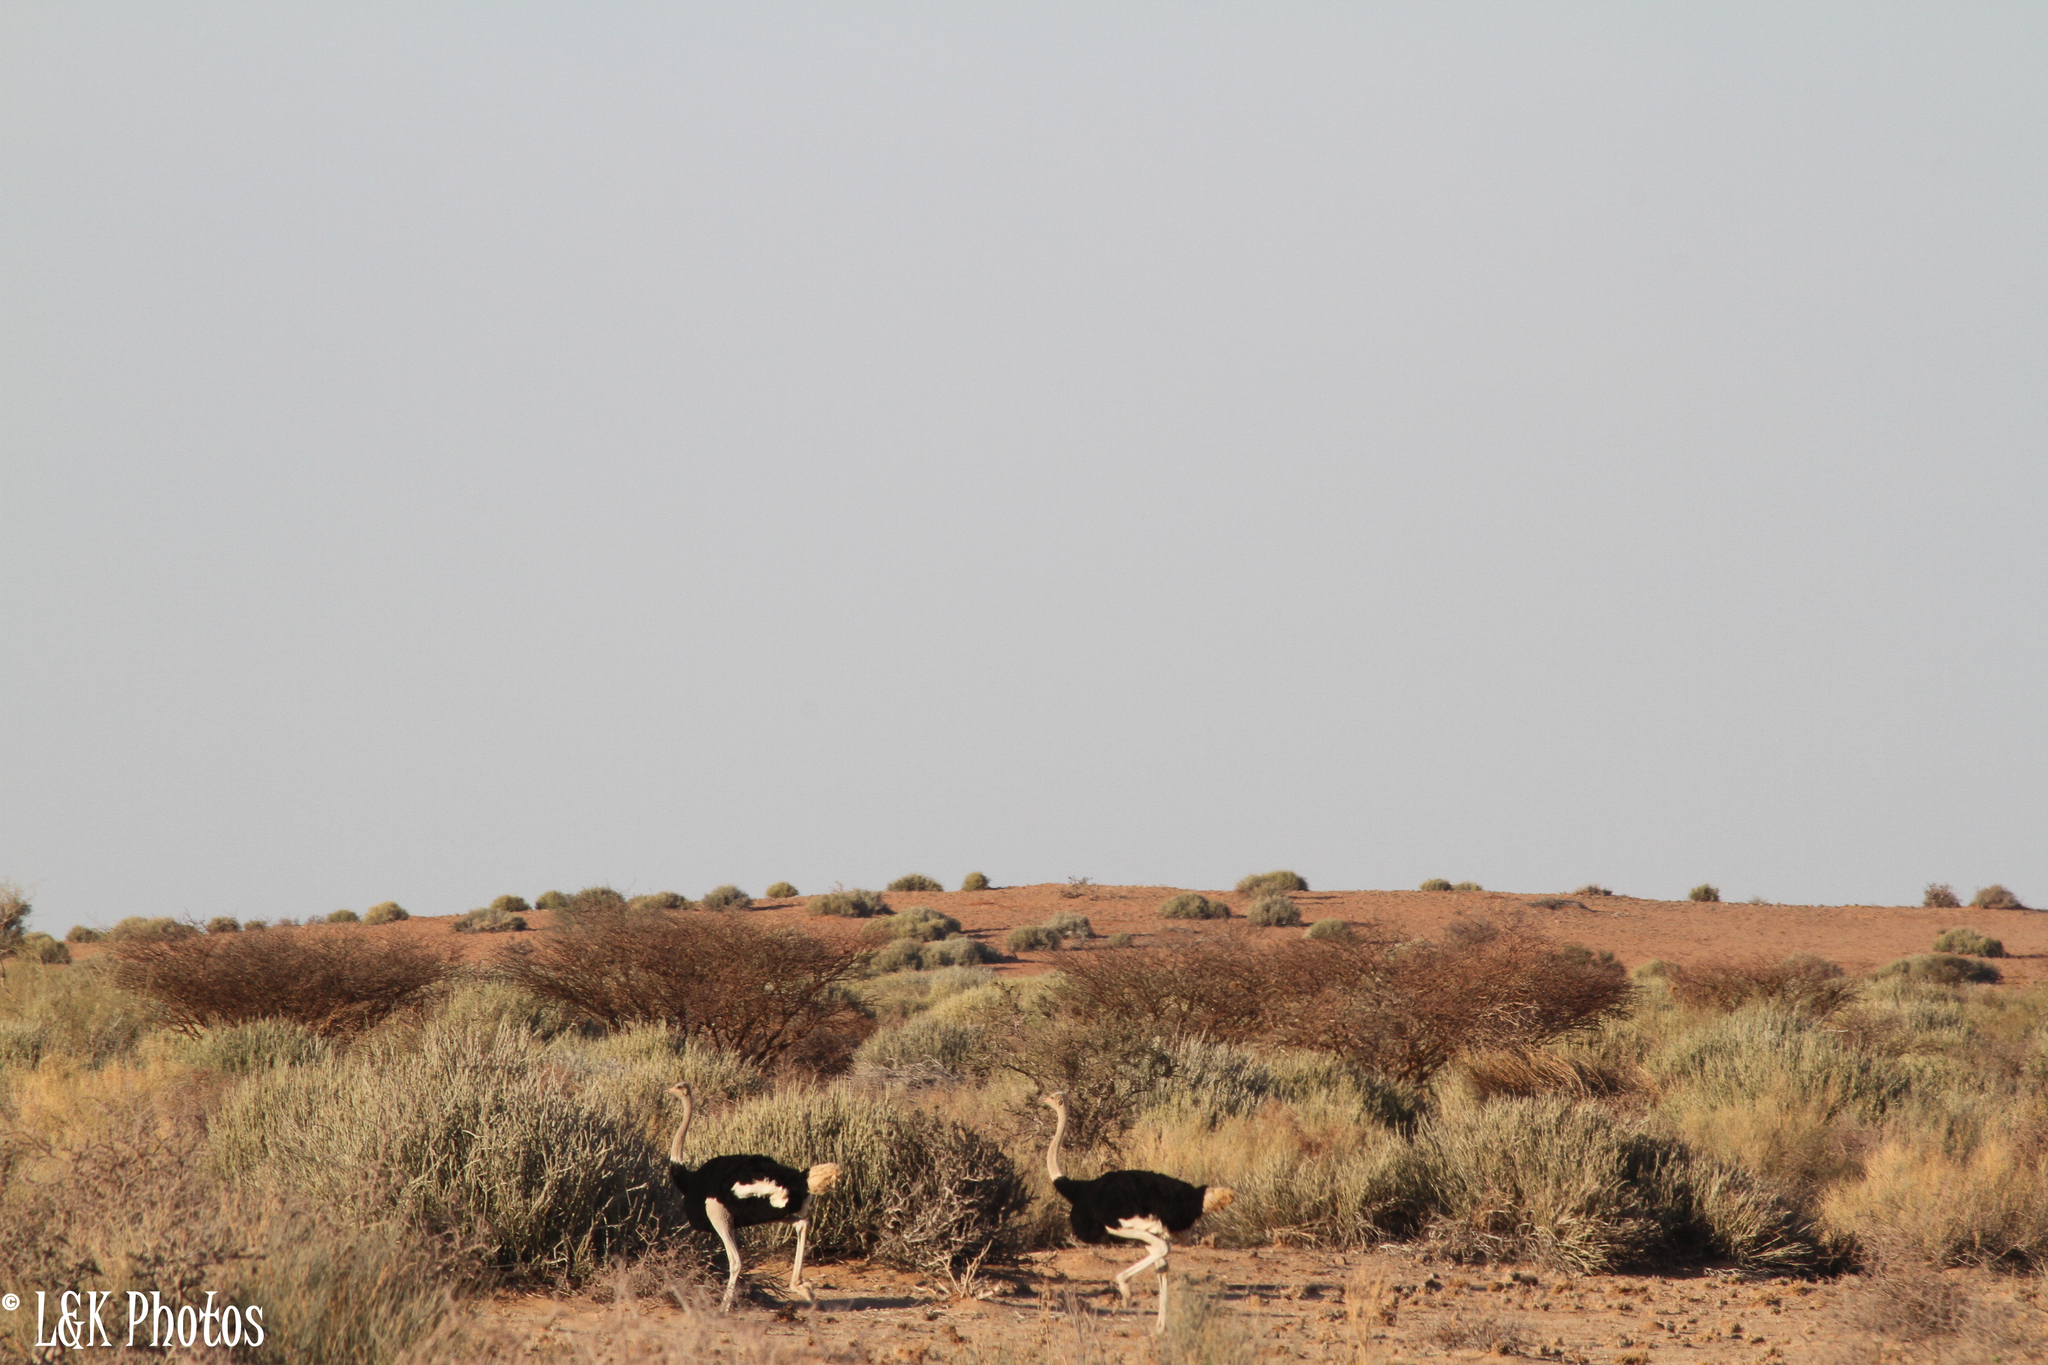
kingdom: Animalia
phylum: Chordata
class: Aves
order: Struthioniformes
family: Struthionidae
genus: Struthio
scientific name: Struthio camelus
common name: Common ostrich
